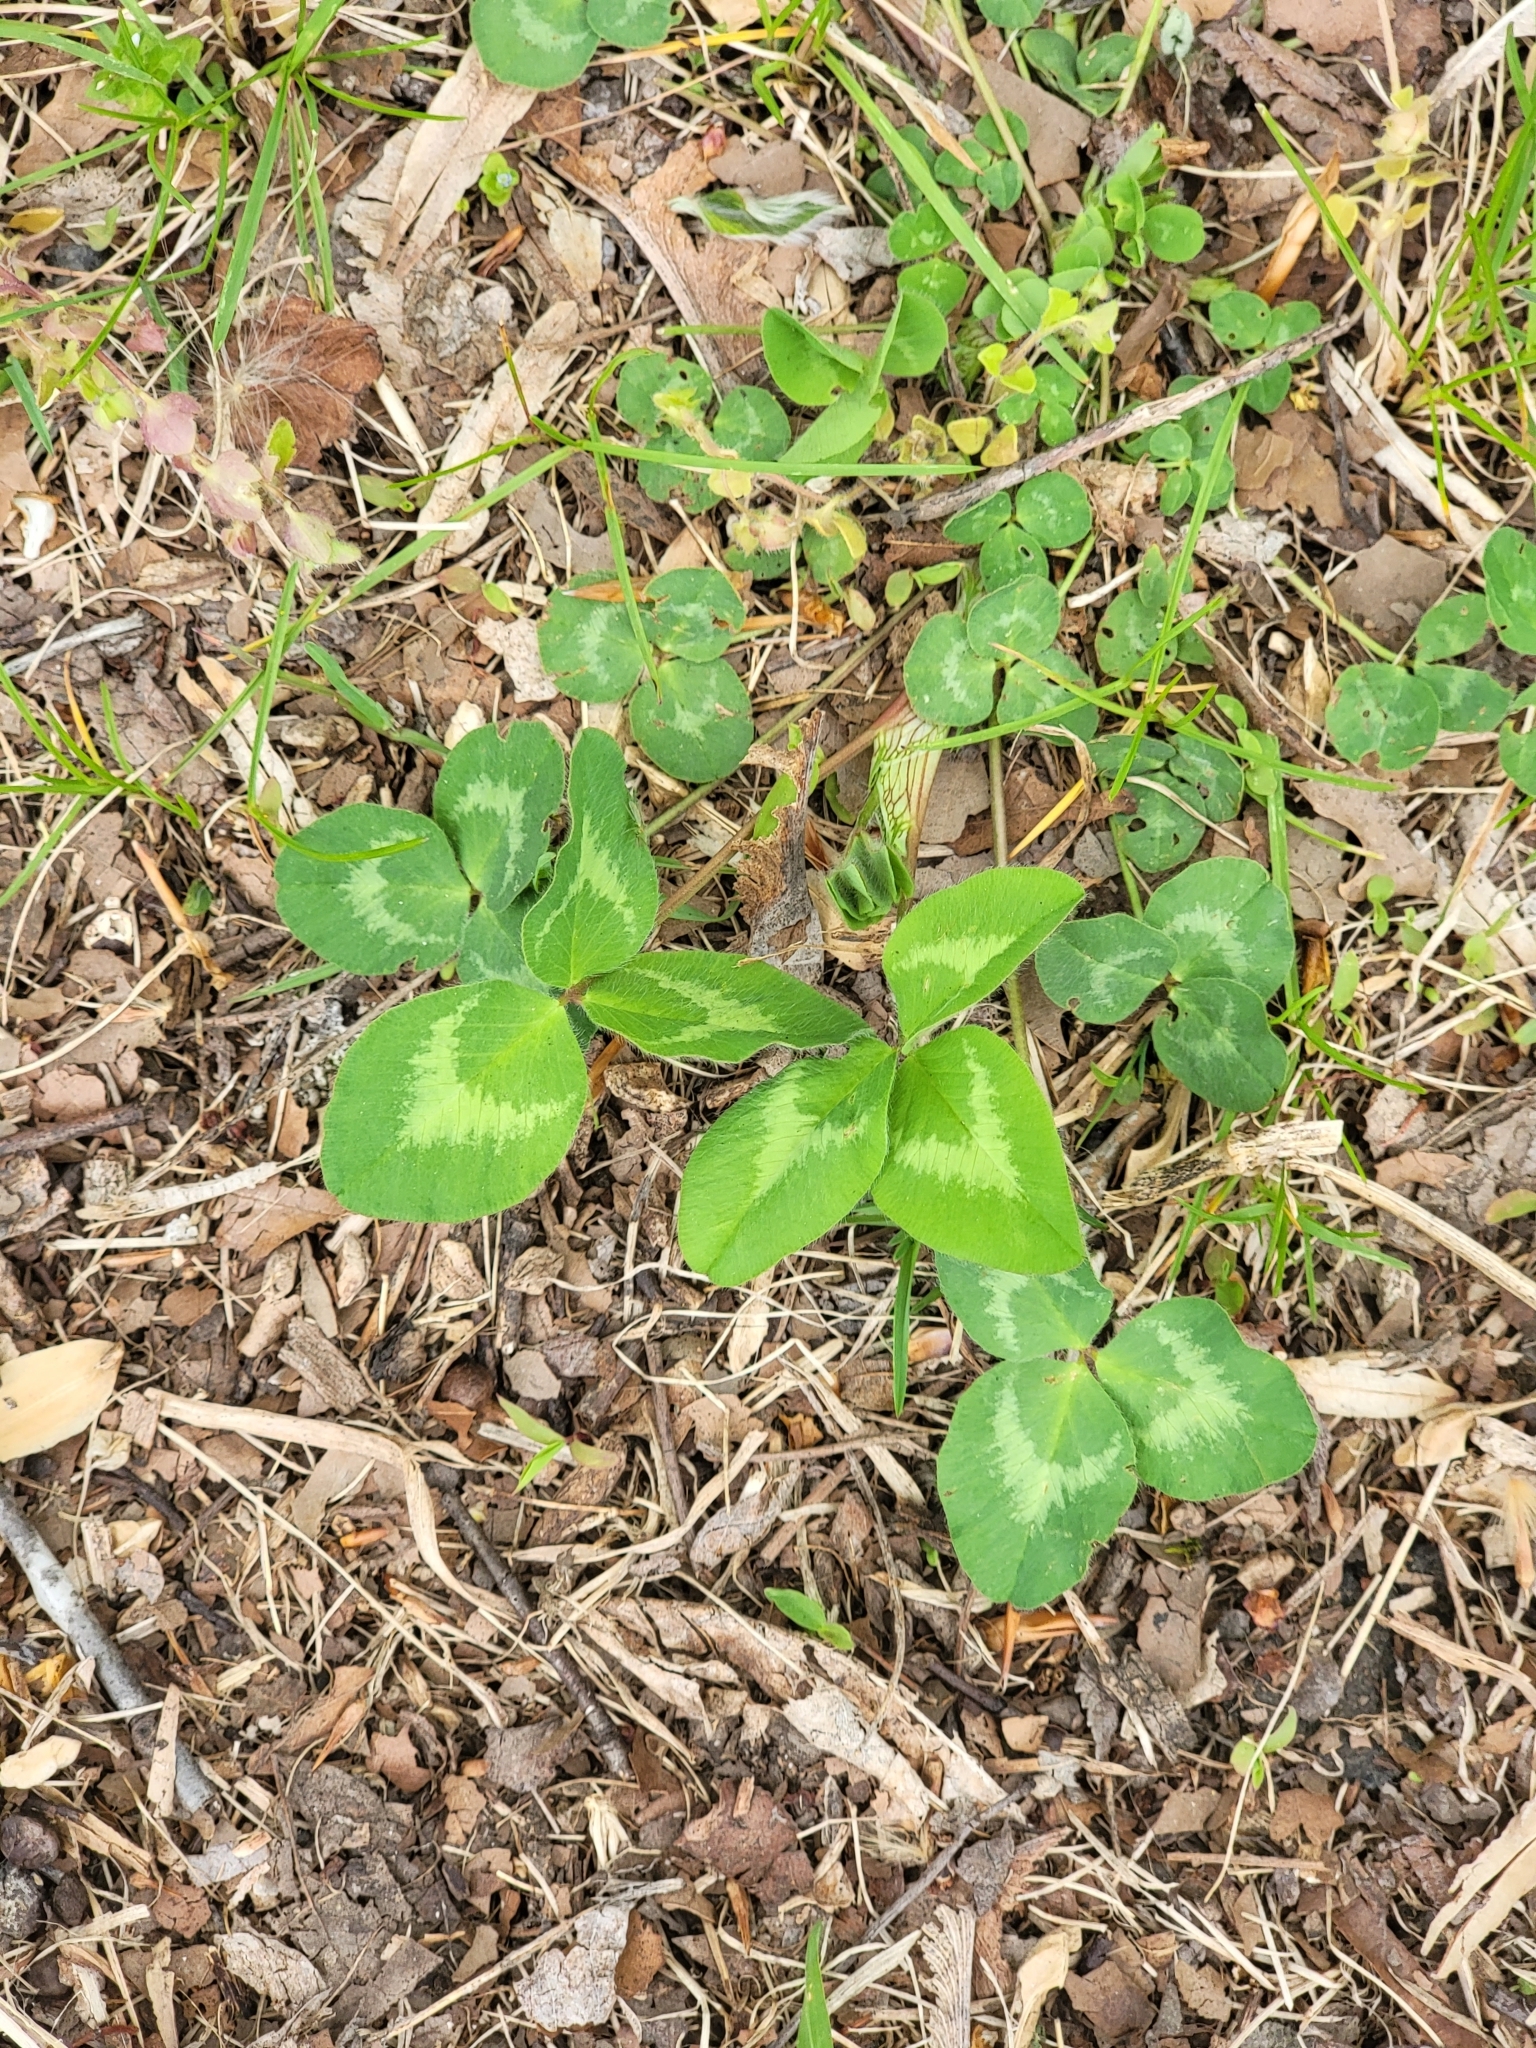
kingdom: Plantae
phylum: Tracheophyta
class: Magnoliopsida
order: Fabales
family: Fabaceae
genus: Trifolium
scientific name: Trifolium pratense
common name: Red clover
